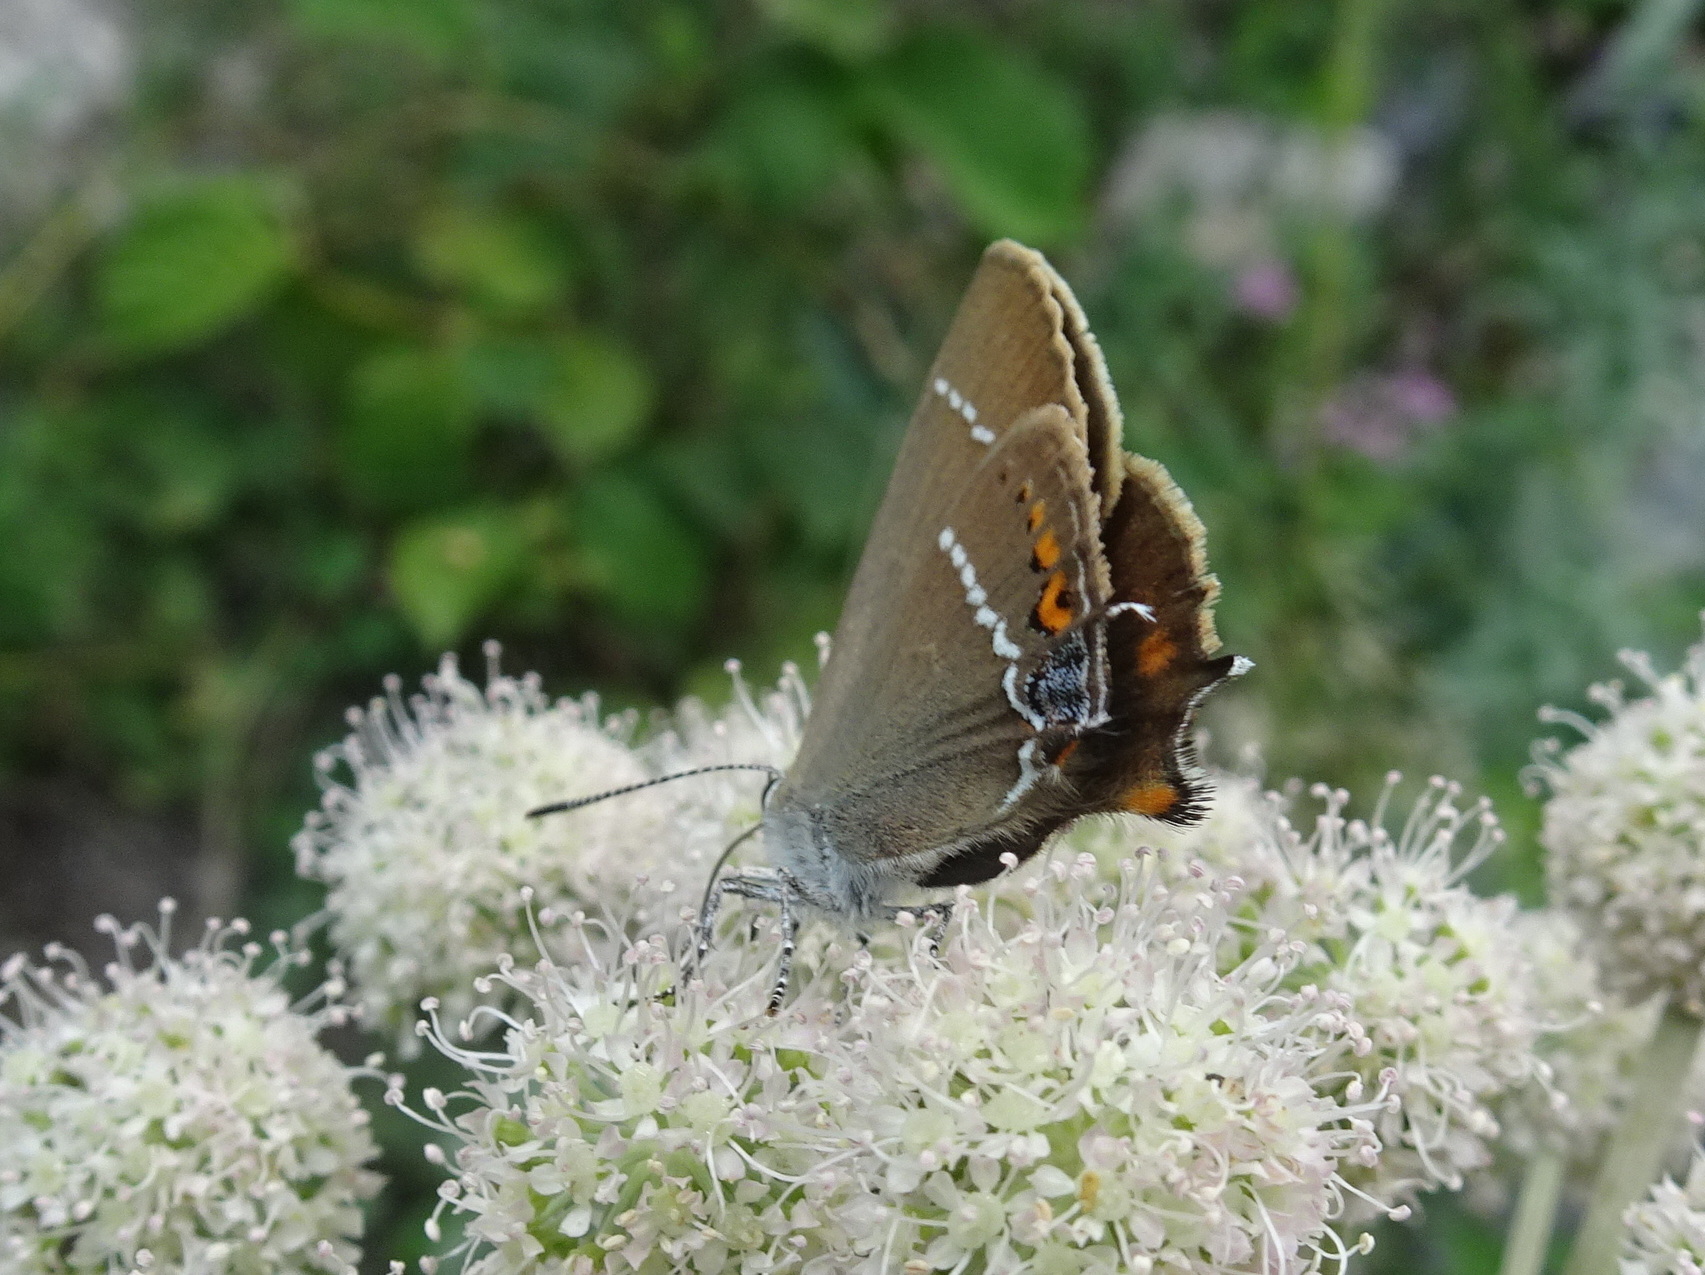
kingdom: Animalia
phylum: Arthropoda
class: Insecta
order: Lepidoptera
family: Lycaenidae
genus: Tuttiola
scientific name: Tuttiola spini
